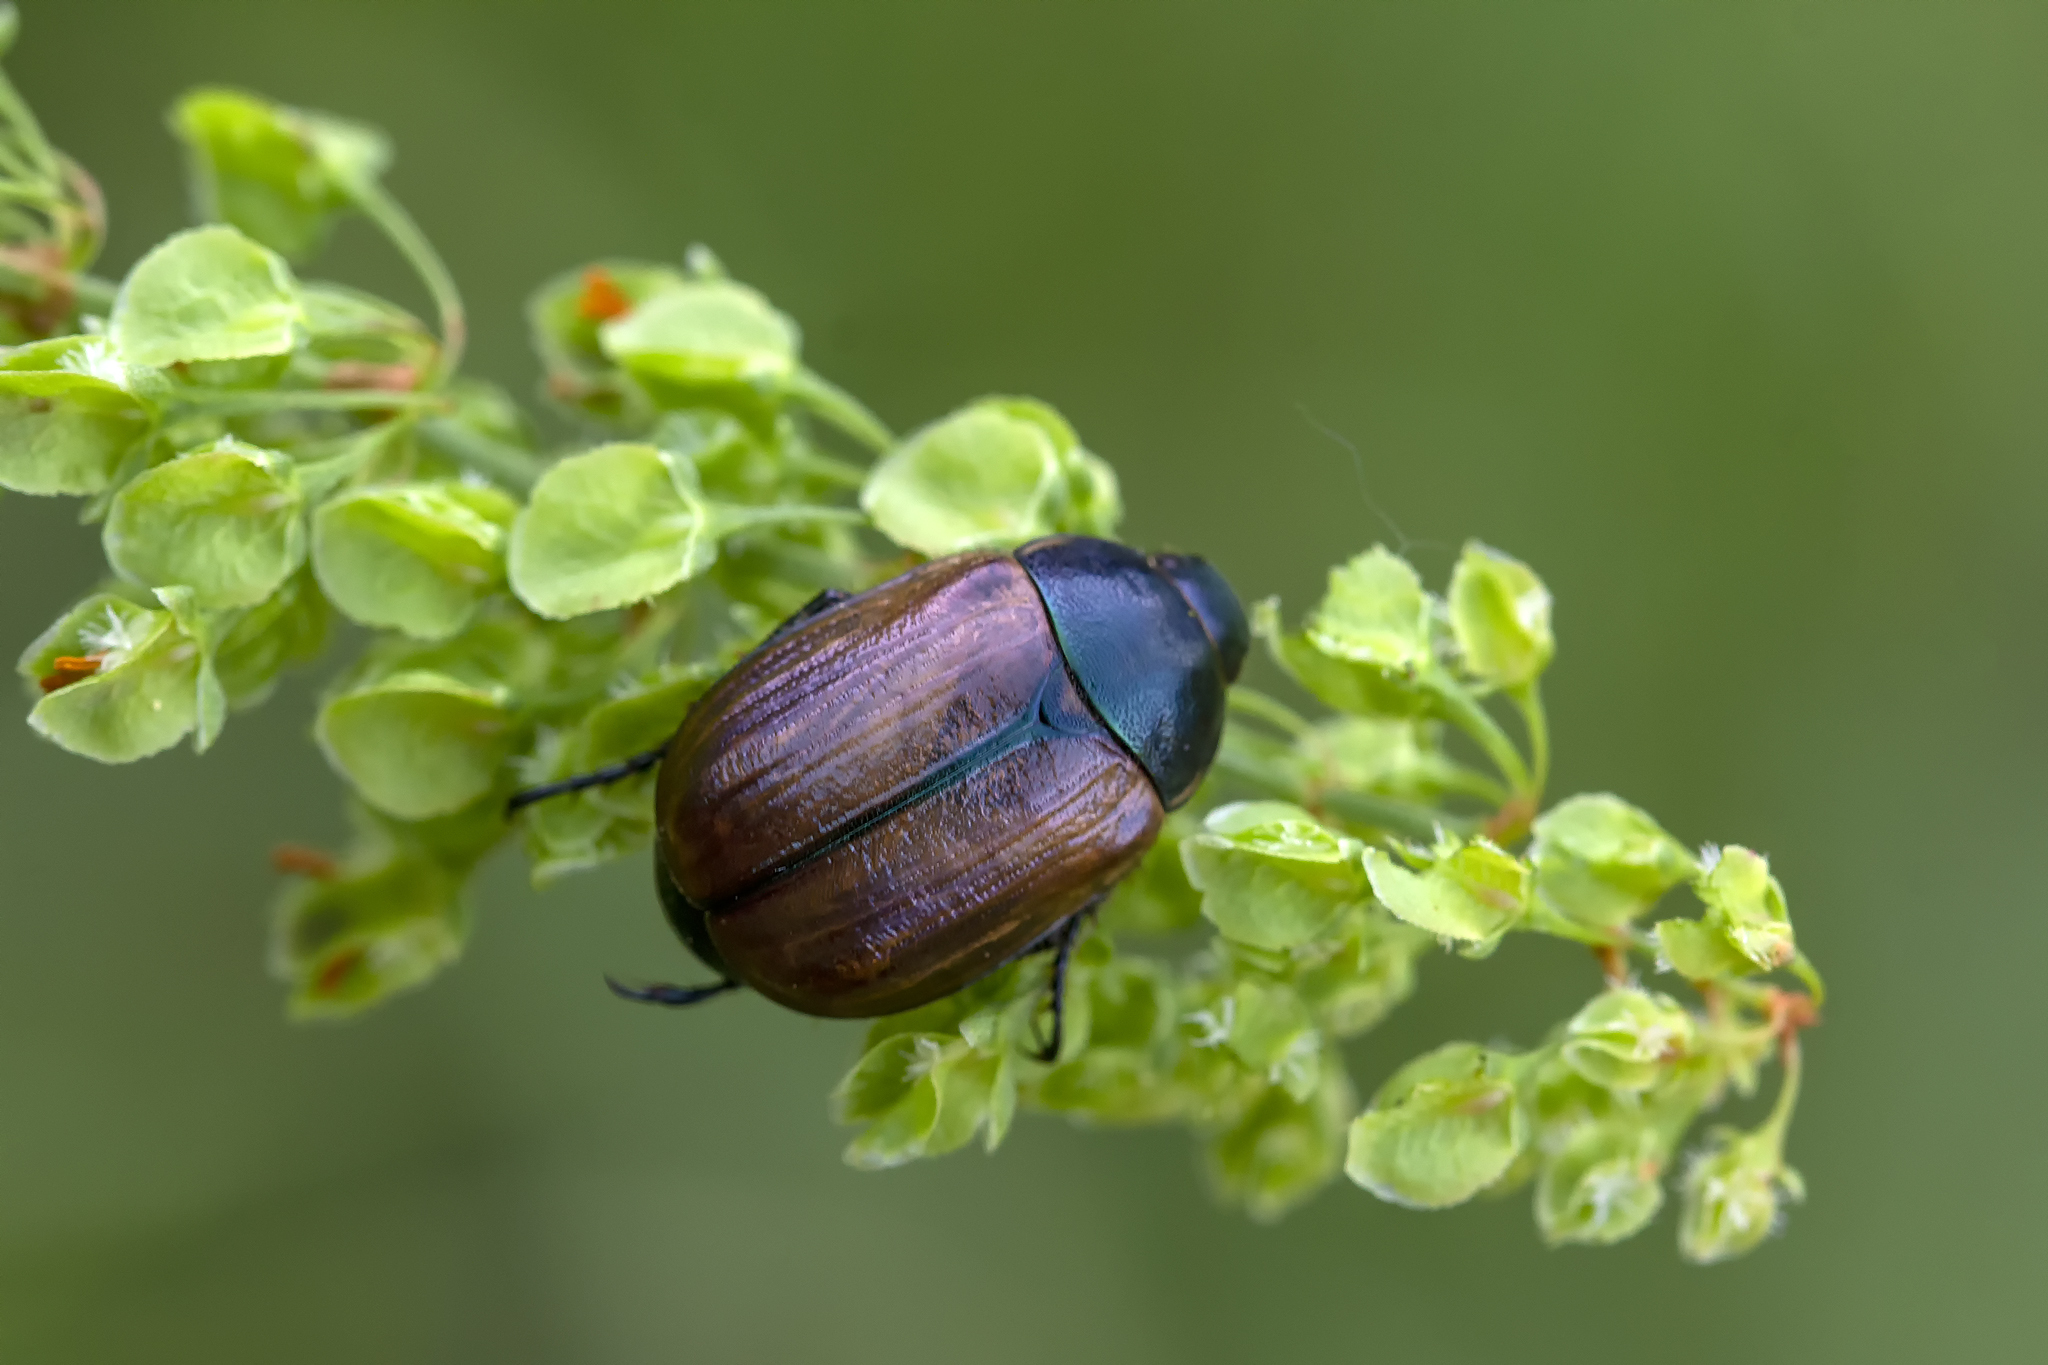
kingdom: Animalia
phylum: Arthropoda
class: Insecta
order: Coleoptera
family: Scarabaeidae
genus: Anomala
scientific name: Anomala dubia
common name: Dune chafer
